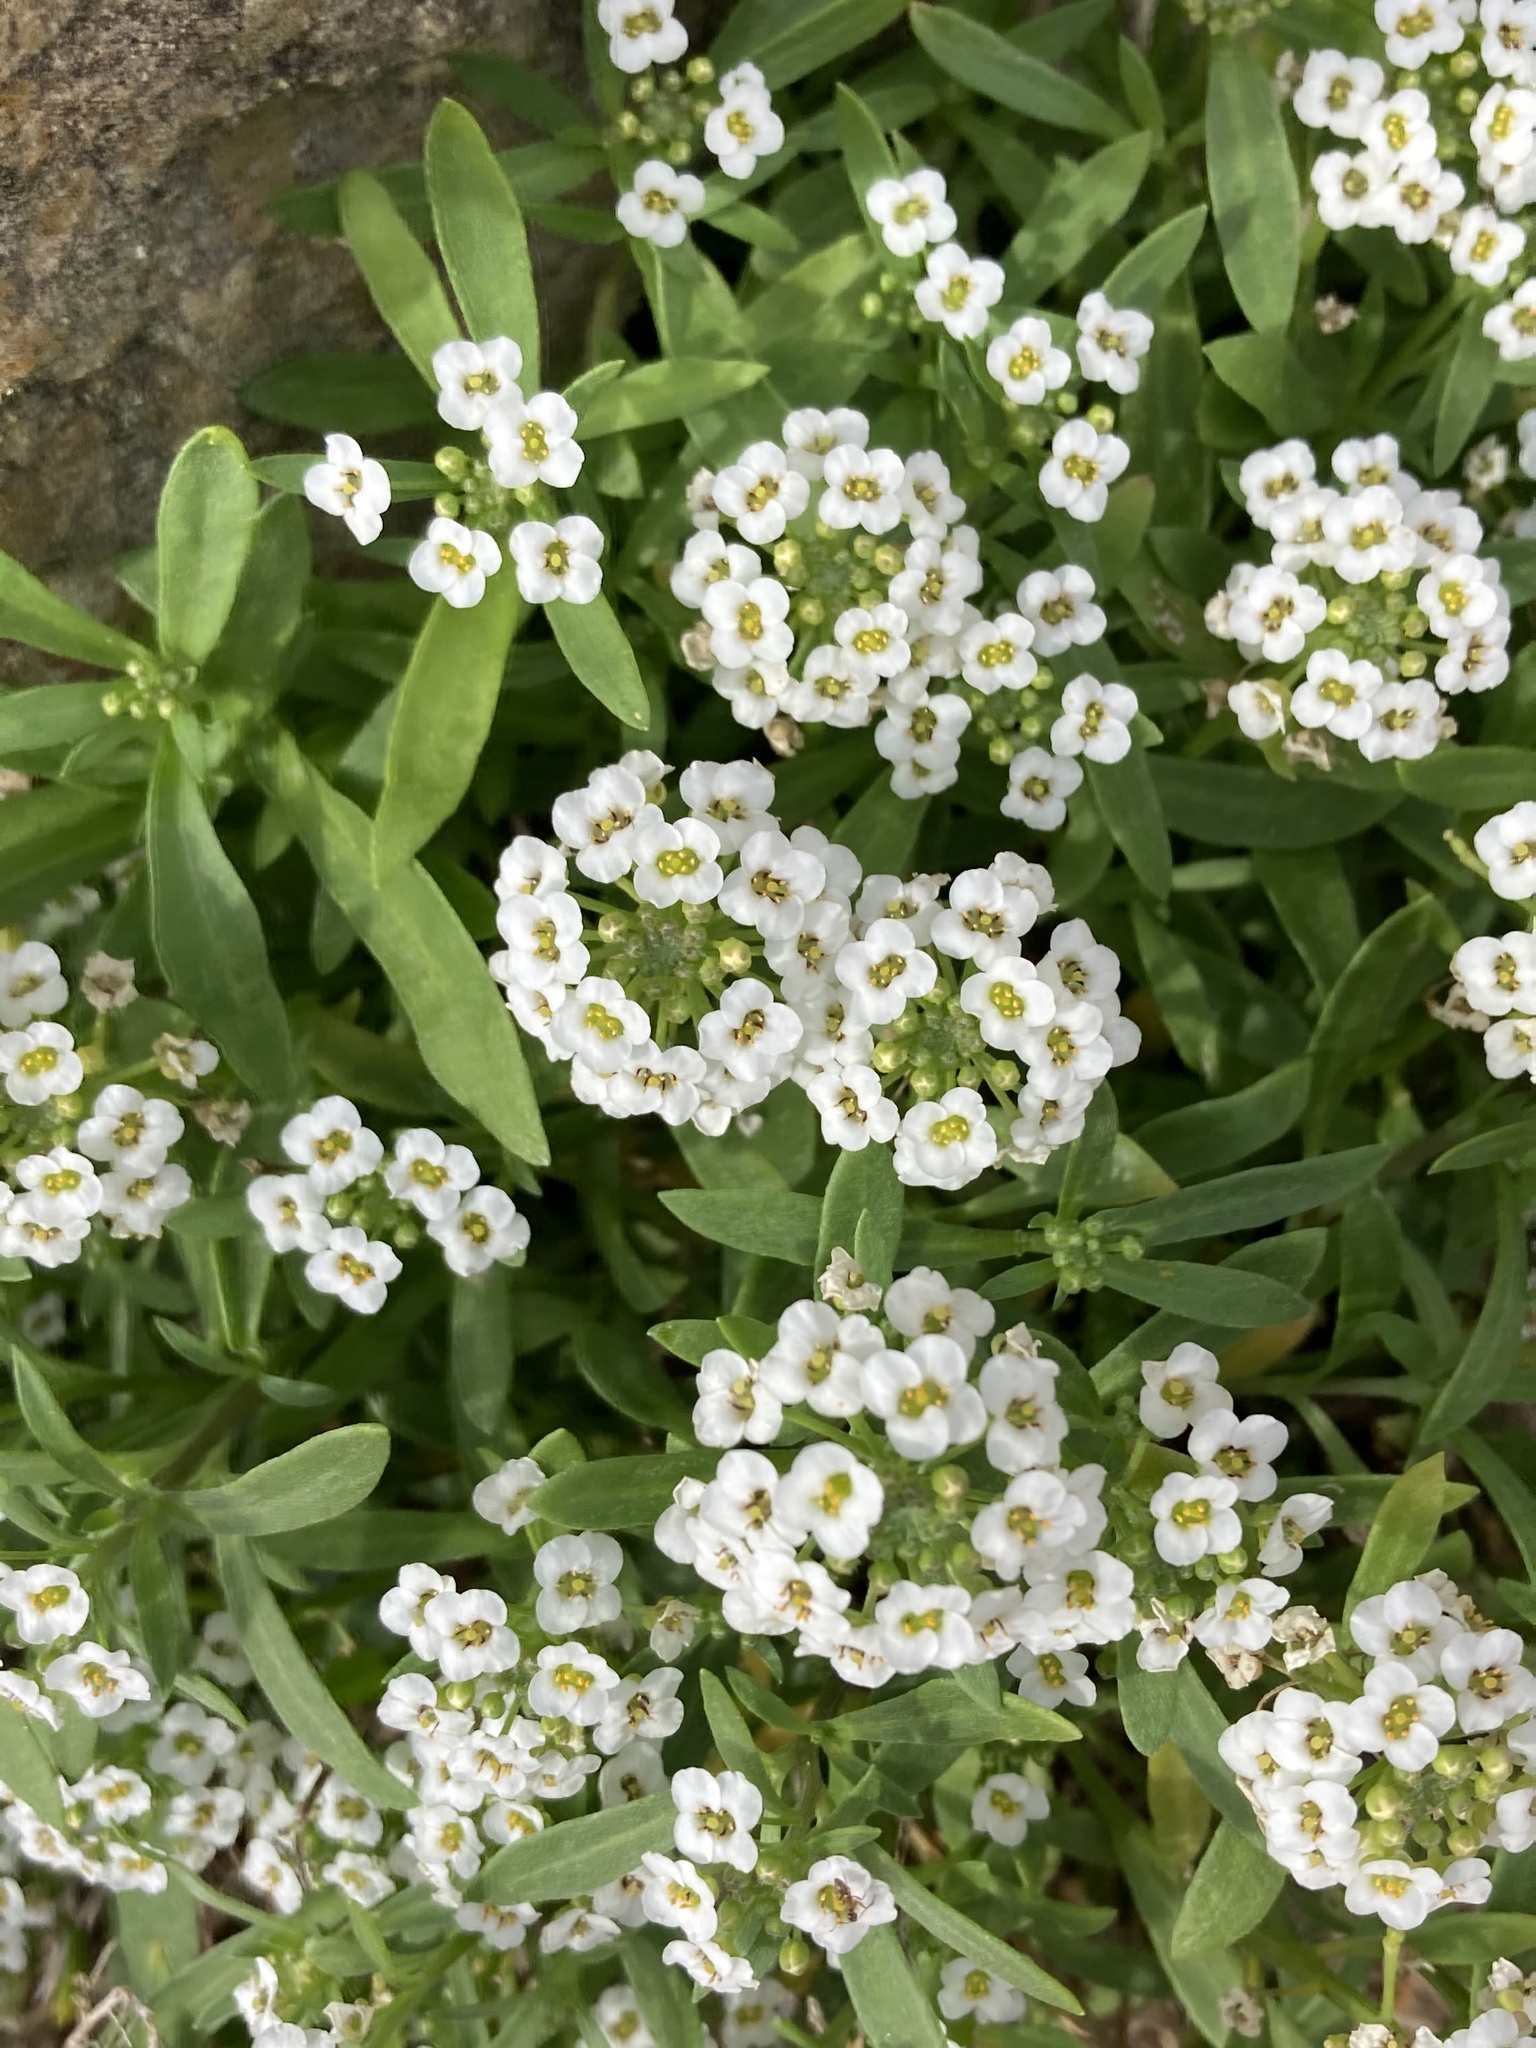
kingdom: Plantae
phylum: Tracheophyta
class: Magnoliopsida
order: Brassicales
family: Brassicaceae
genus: Lobularia
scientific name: Lobularia maritima
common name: Sweet alison
